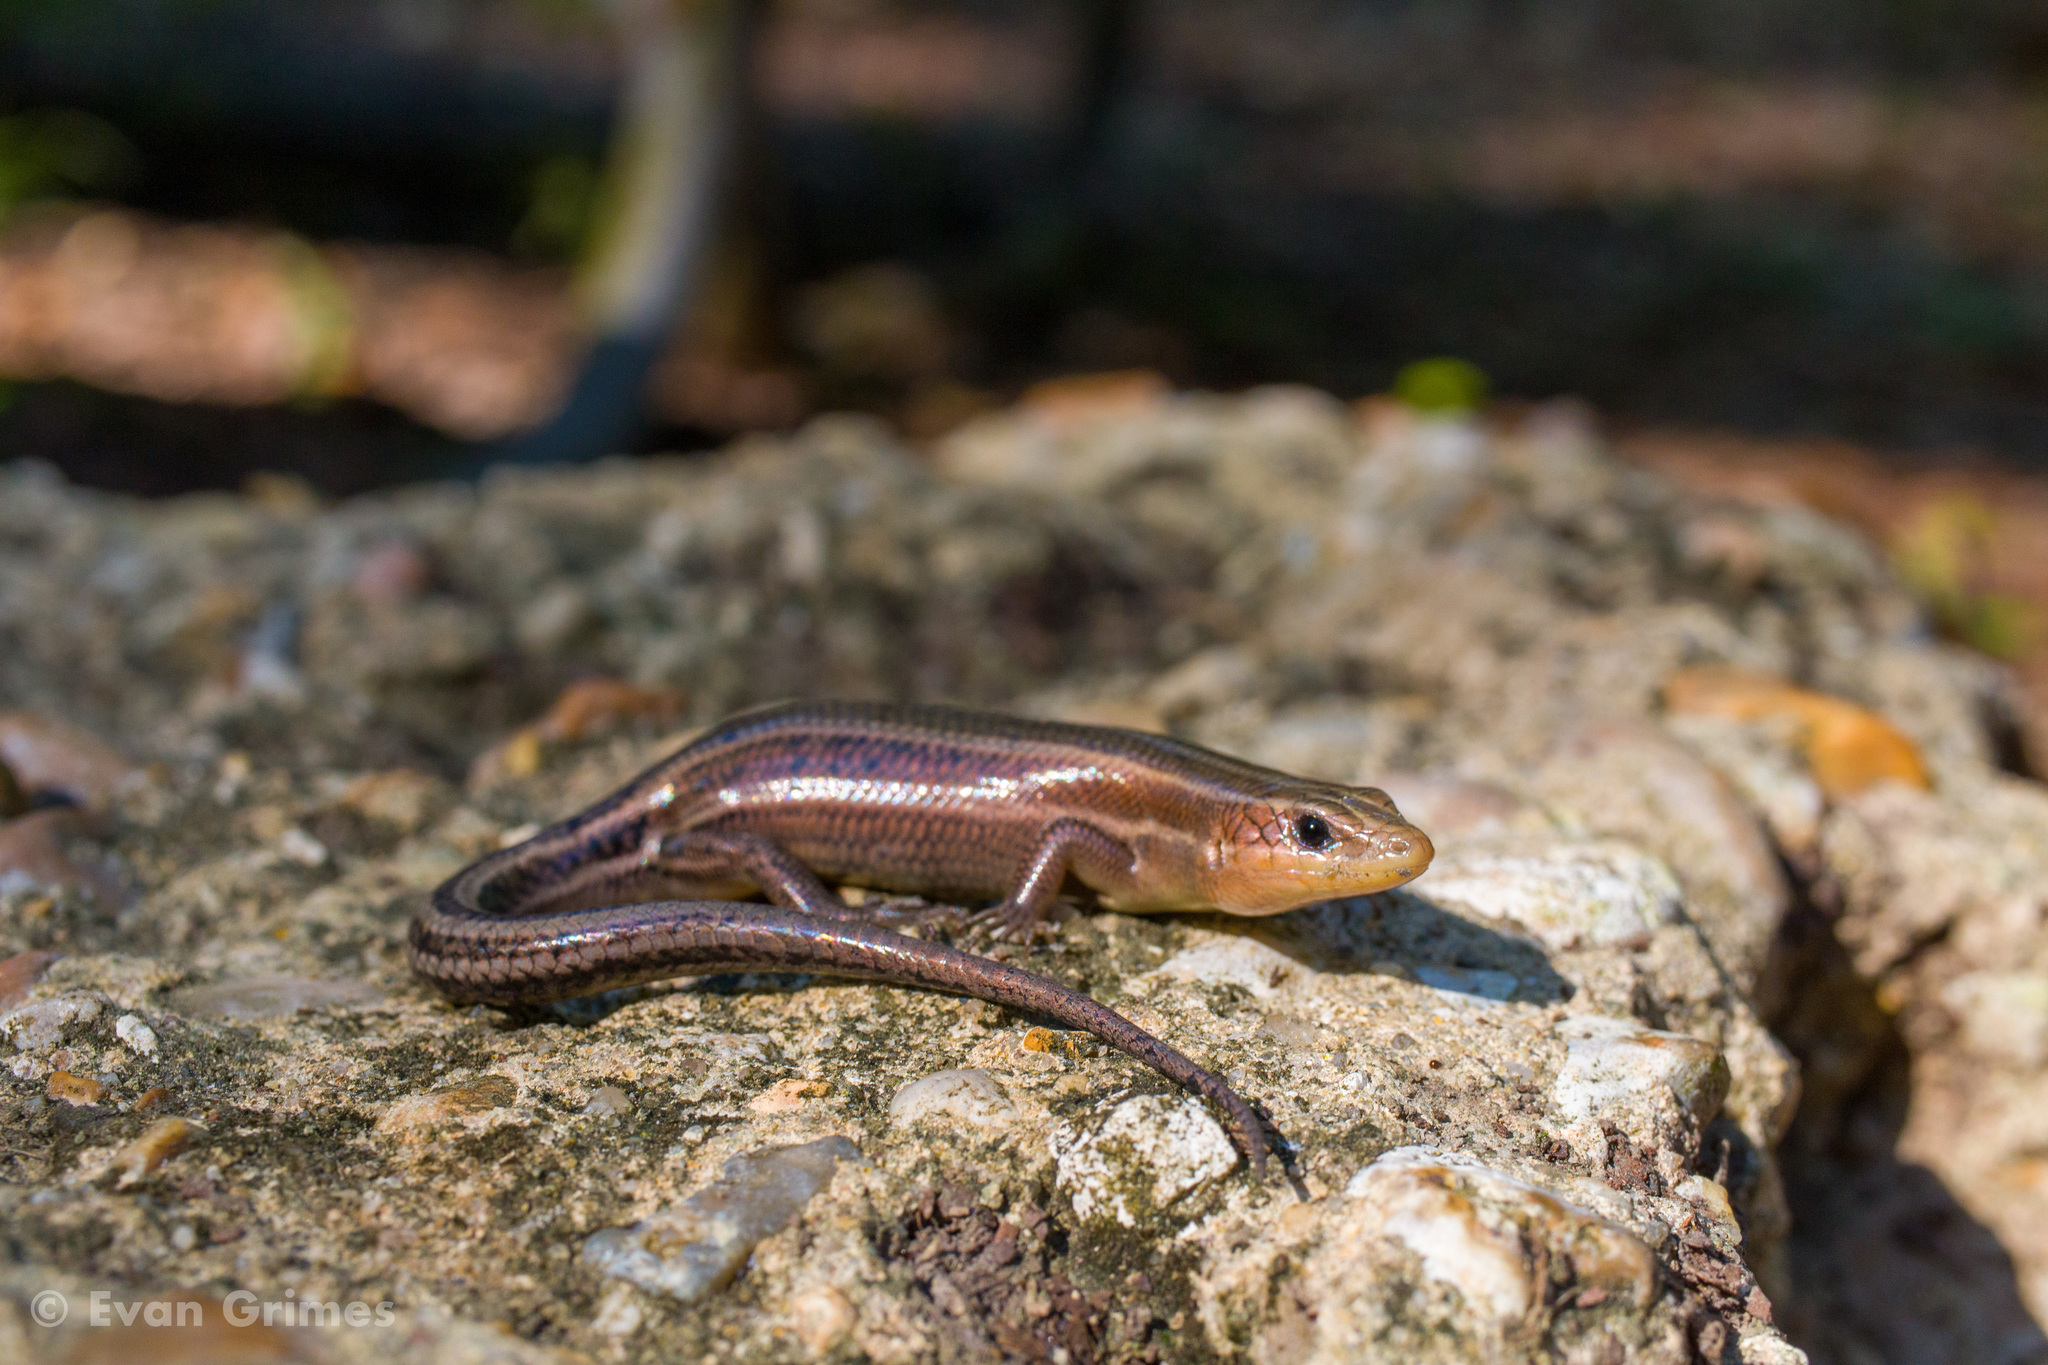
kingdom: Animalia
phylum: Chordata
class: Squamata
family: Scincidae
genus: Plestiodon
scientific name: Plestiodon fasciatus
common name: Five-lined skink
